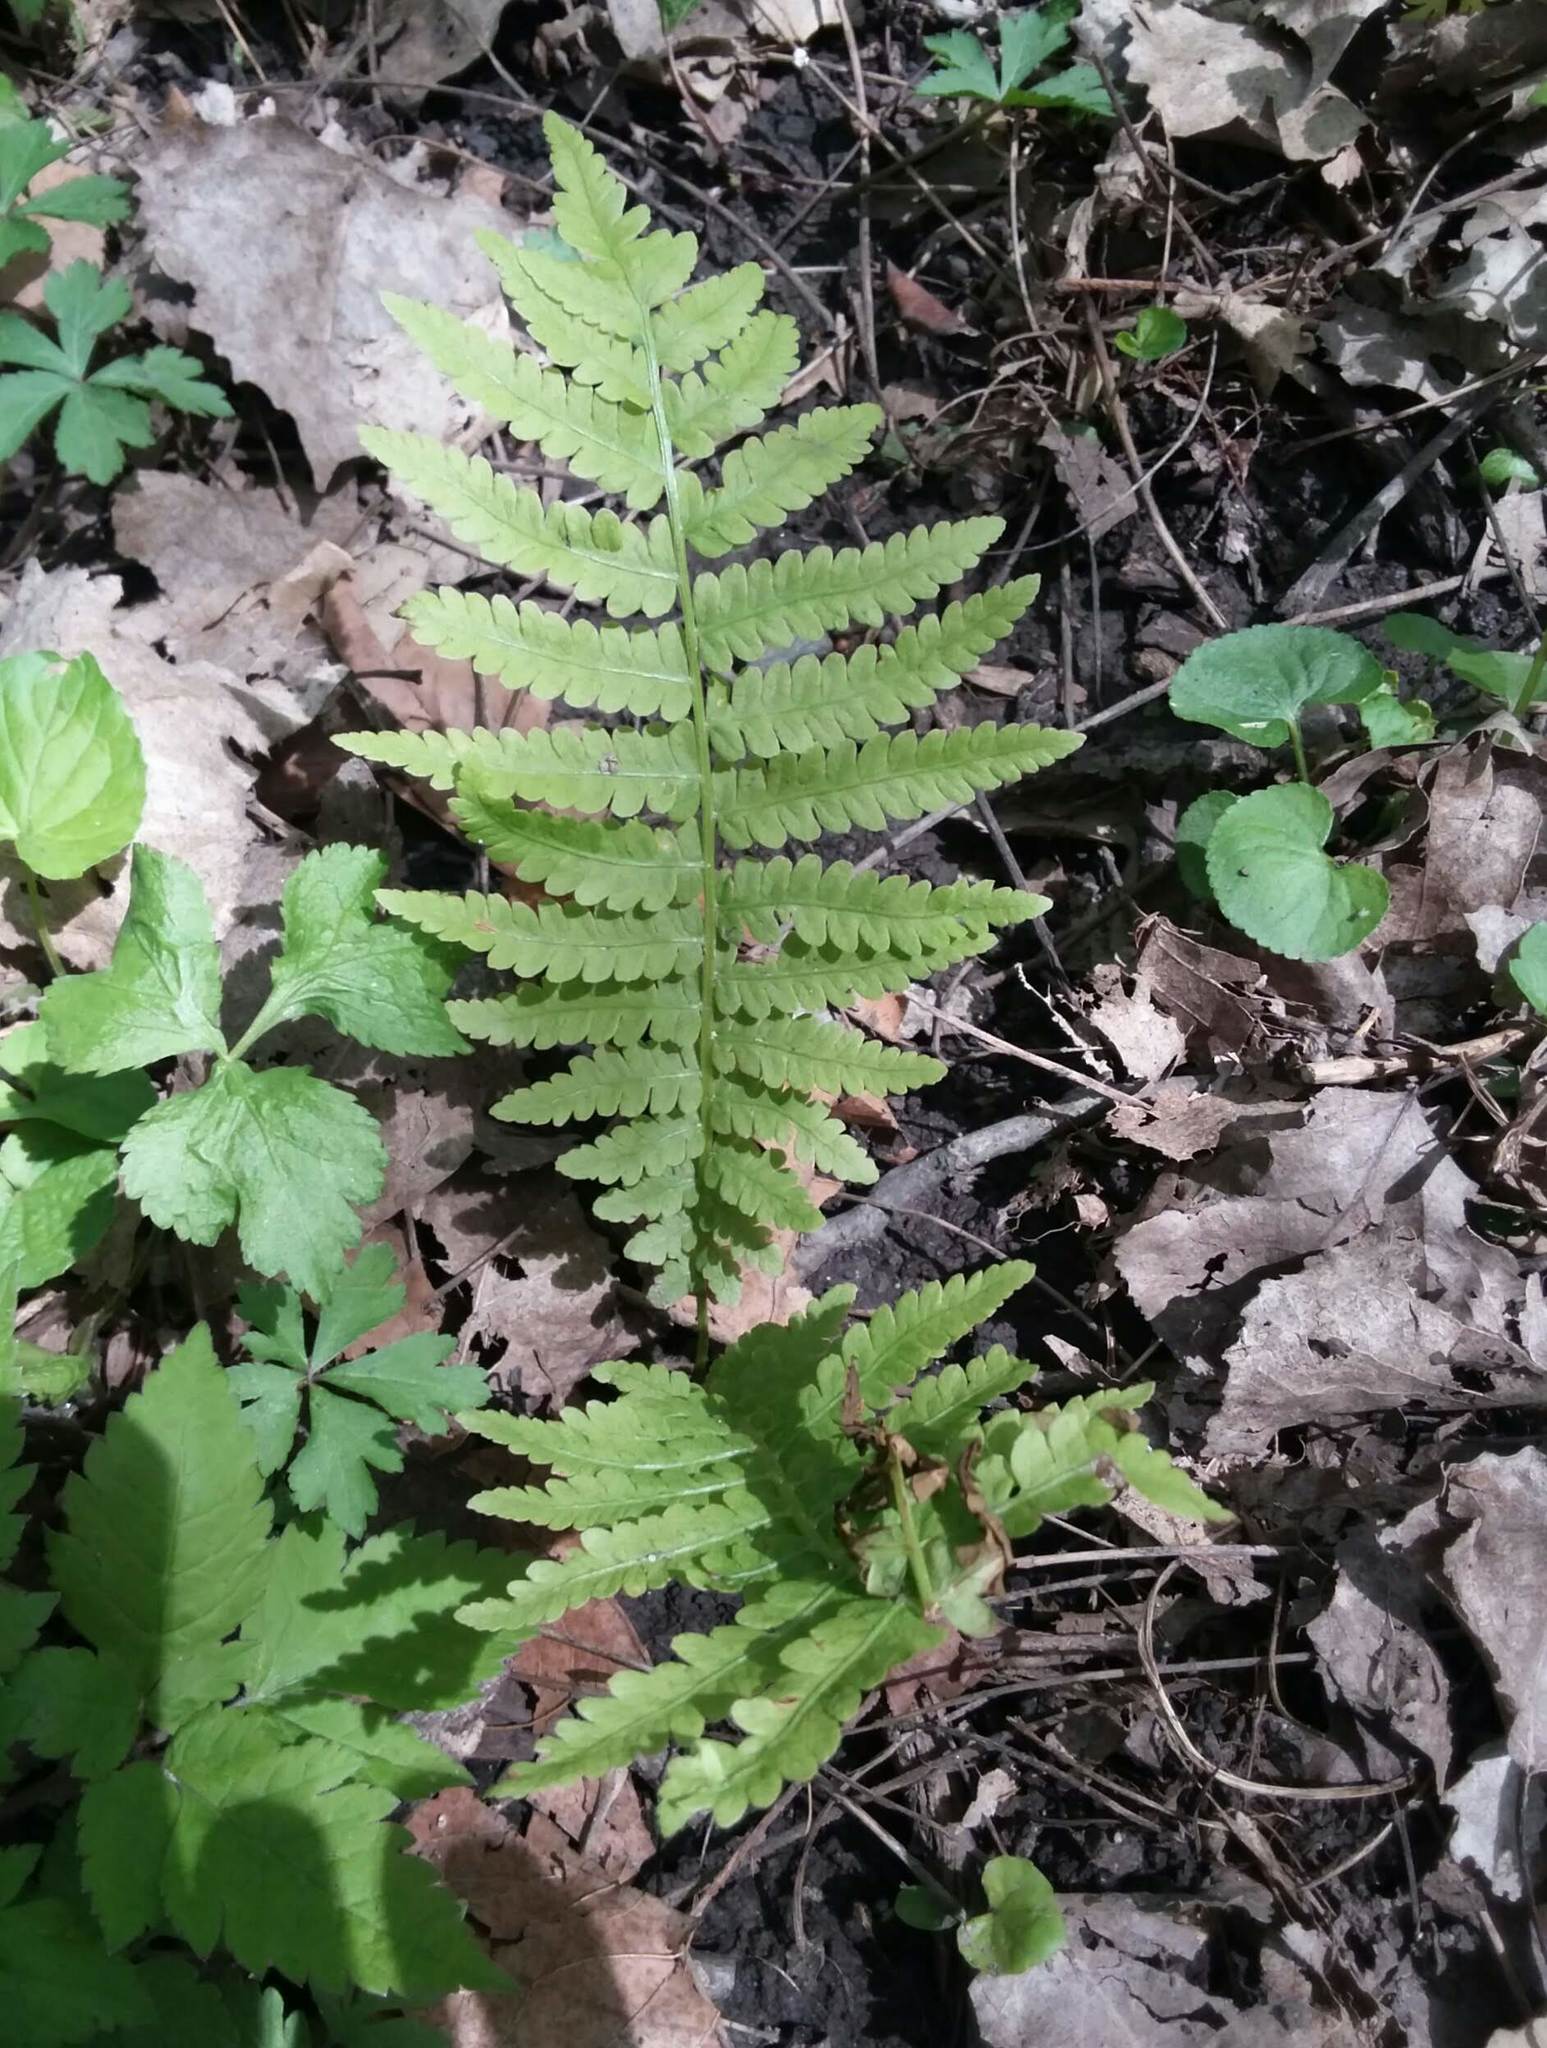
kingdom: Plantae
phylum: Tracheophyta
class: Polypodiopsida
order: Polypodiales
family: Onocleaceae
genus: Matteuccia
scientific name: Matteuccia struthiopteris
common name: Ostrich fern
